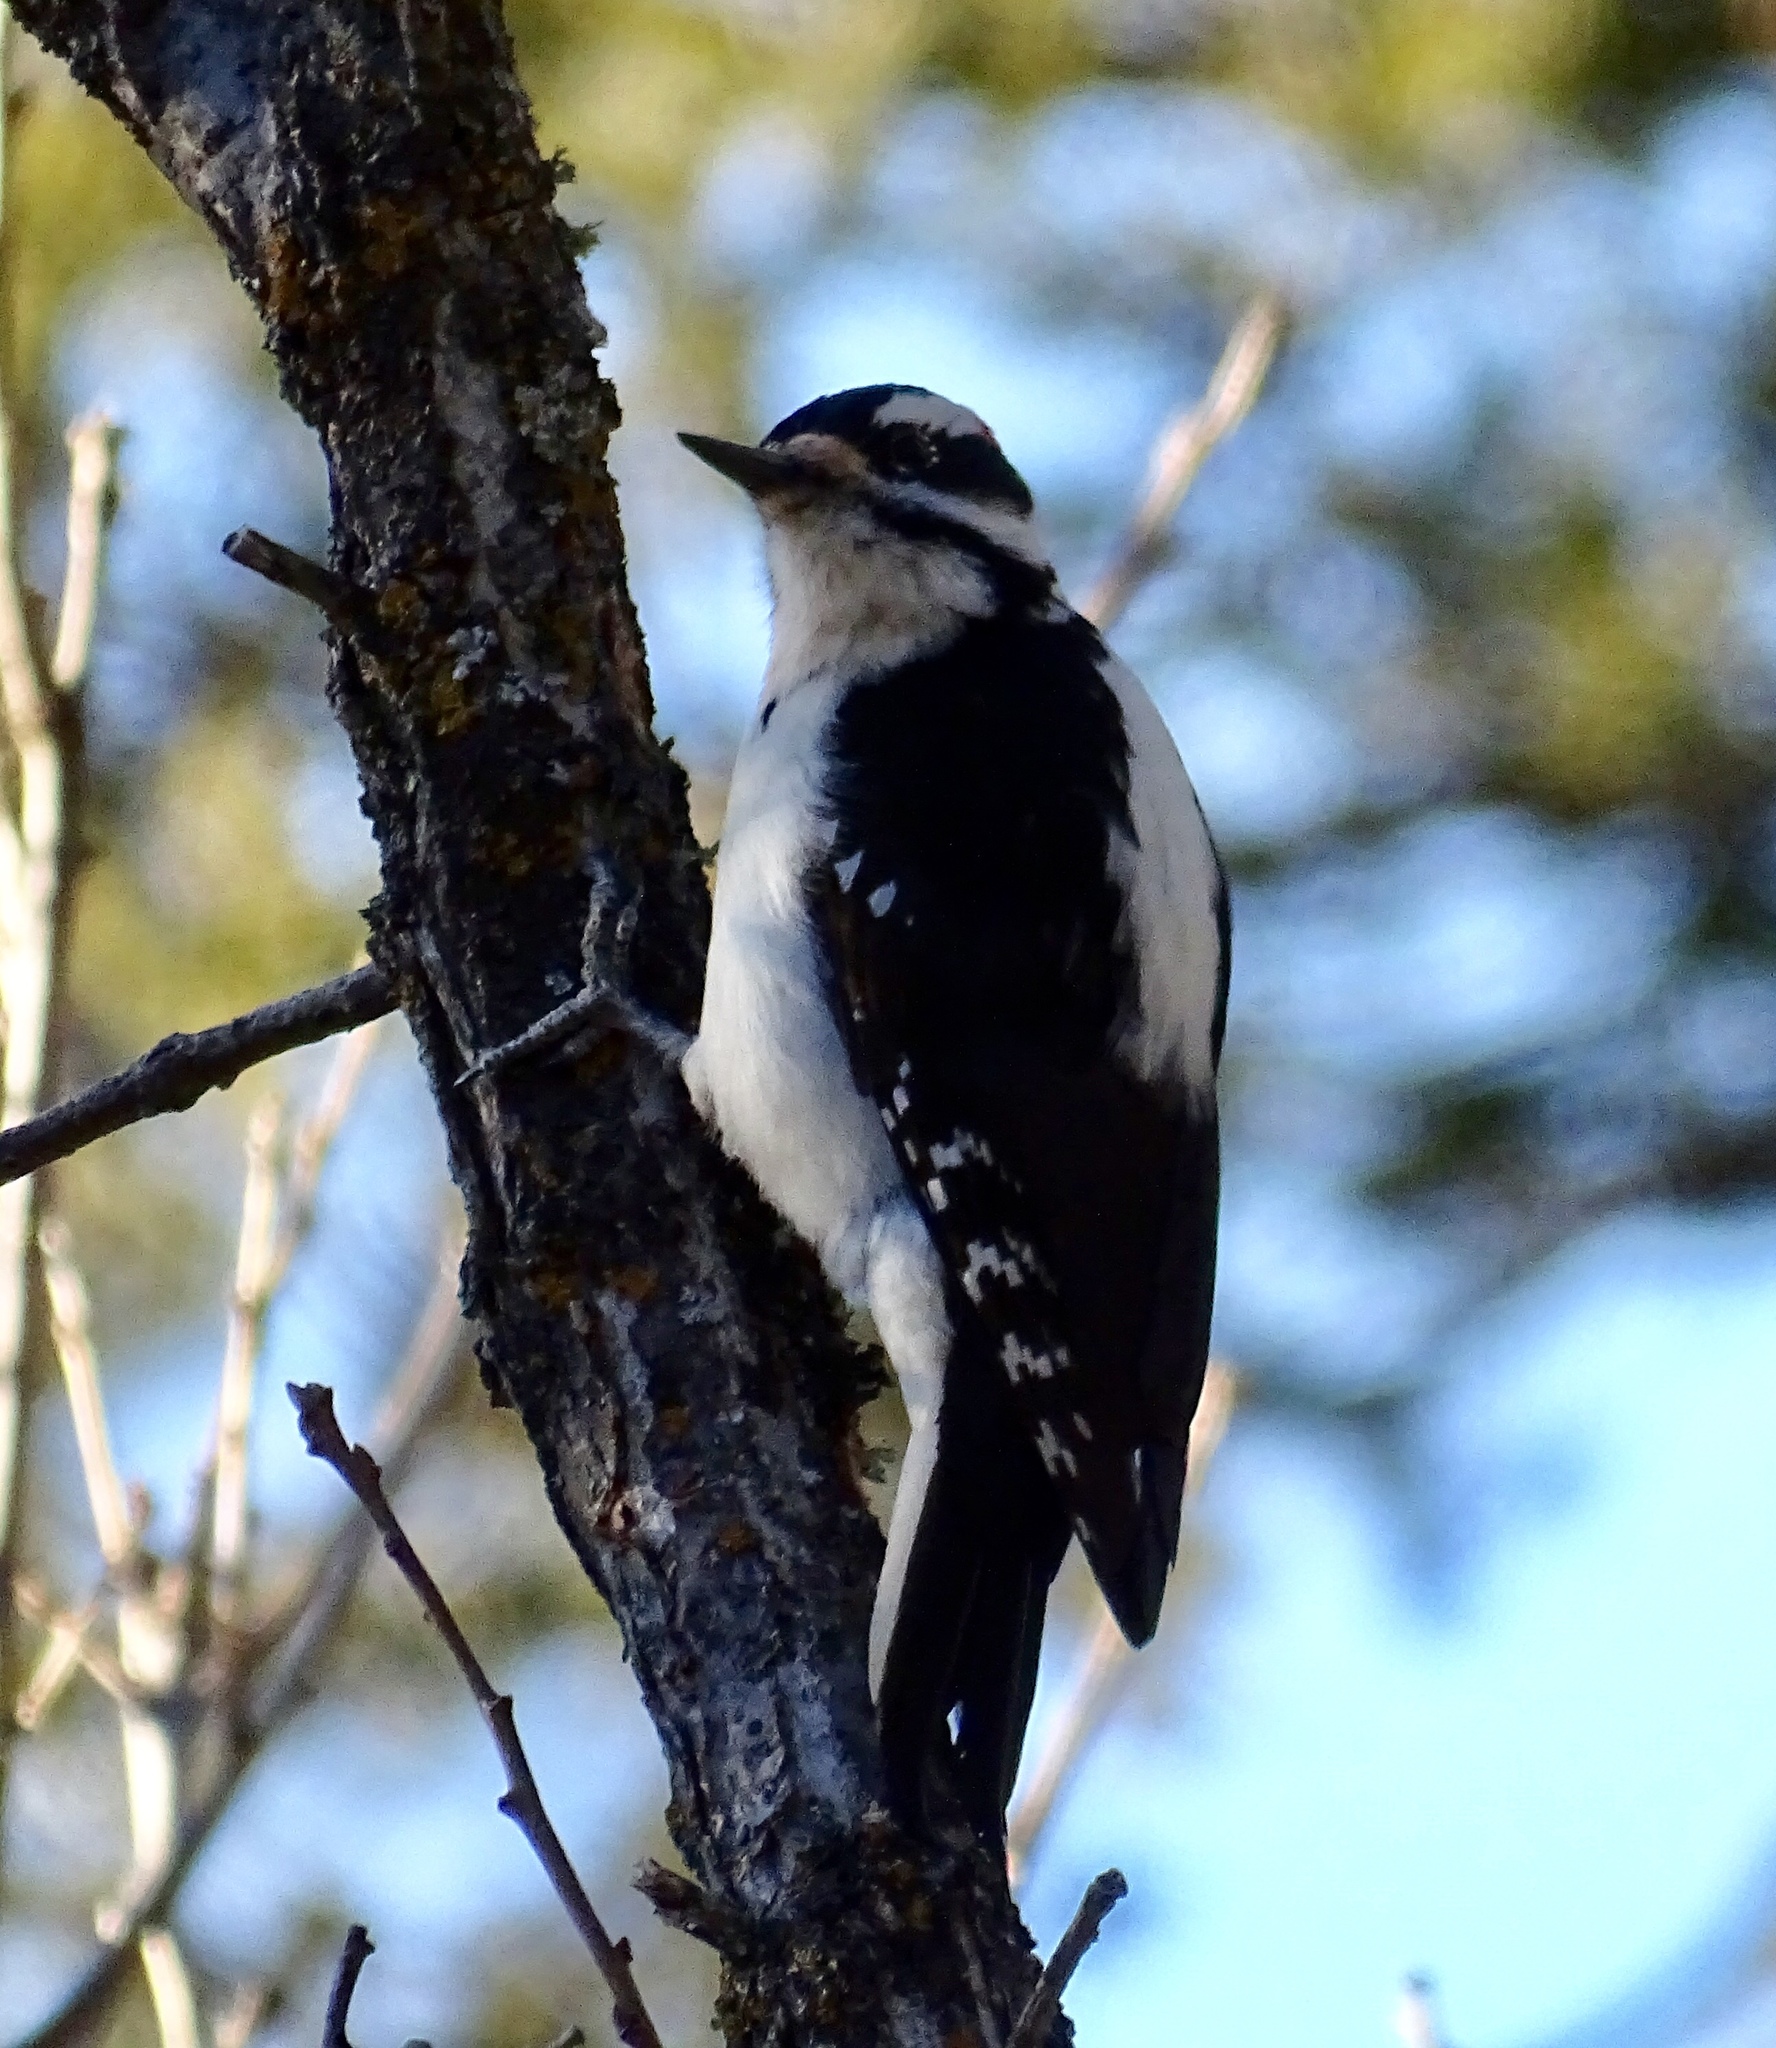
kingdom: Animalia
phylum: Chordata
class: Aves
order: Piciformes
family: Picidae
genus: Leuconotopicus
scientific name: Leuconotopicus villosus
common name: Hairy woodpecker
